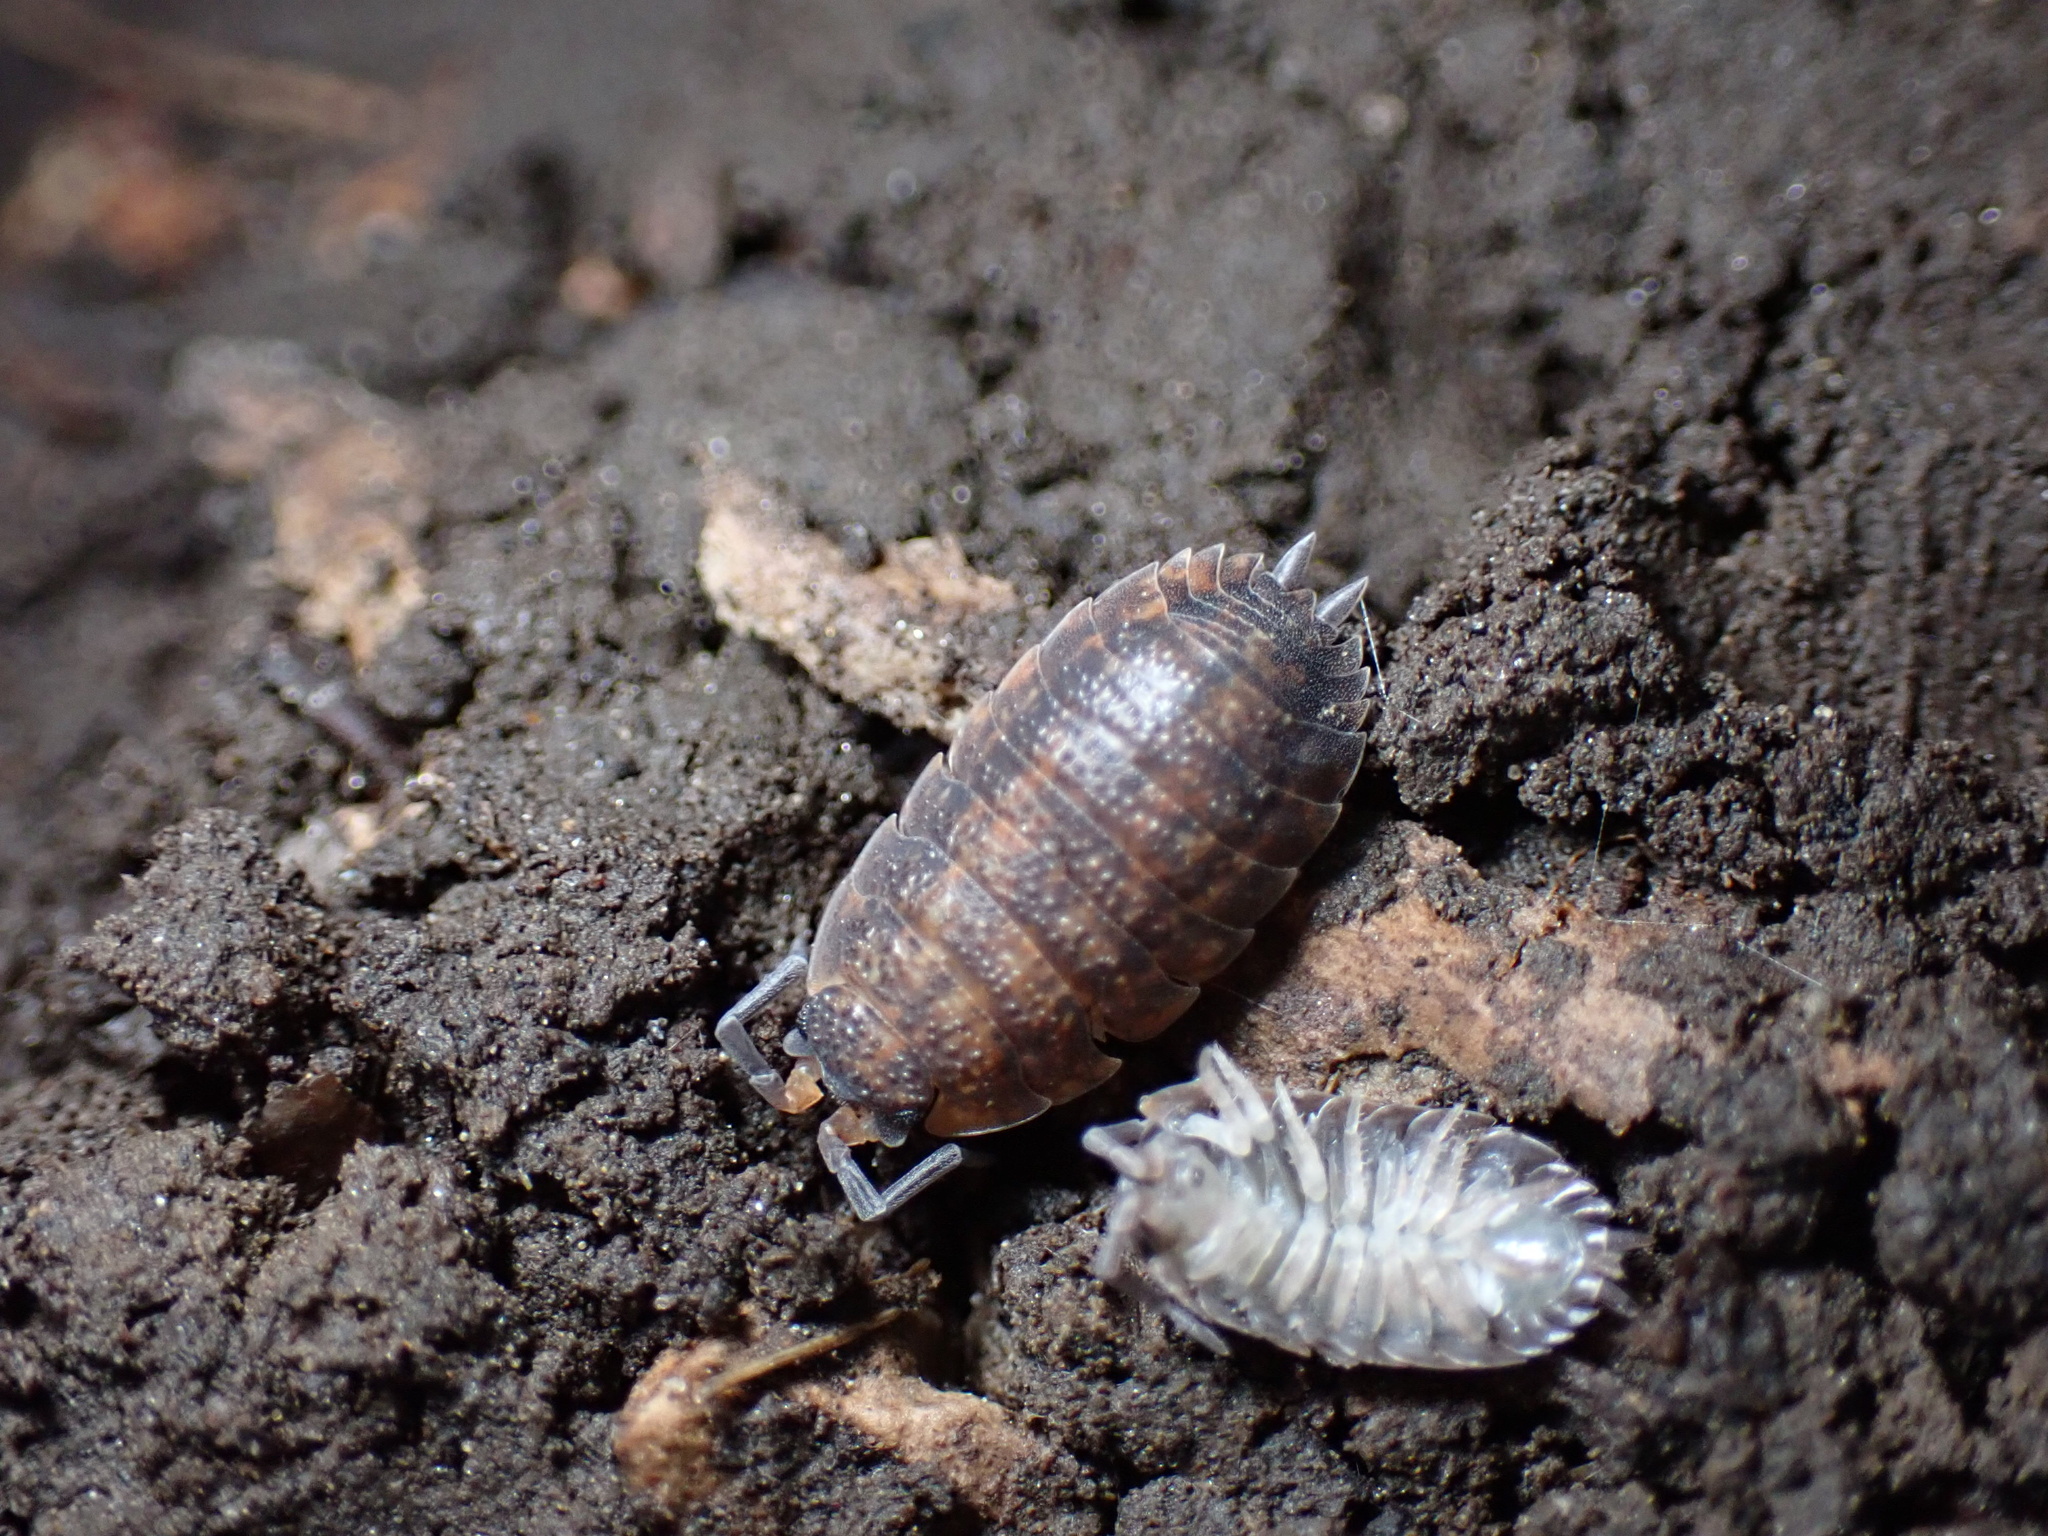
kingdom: Animalia
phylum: Arthropoda
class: Malacostraca
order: Isopoda
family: Porcellionidae
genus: Porcellio
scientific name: Porcellio scaber
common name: Common rough woodlouse
